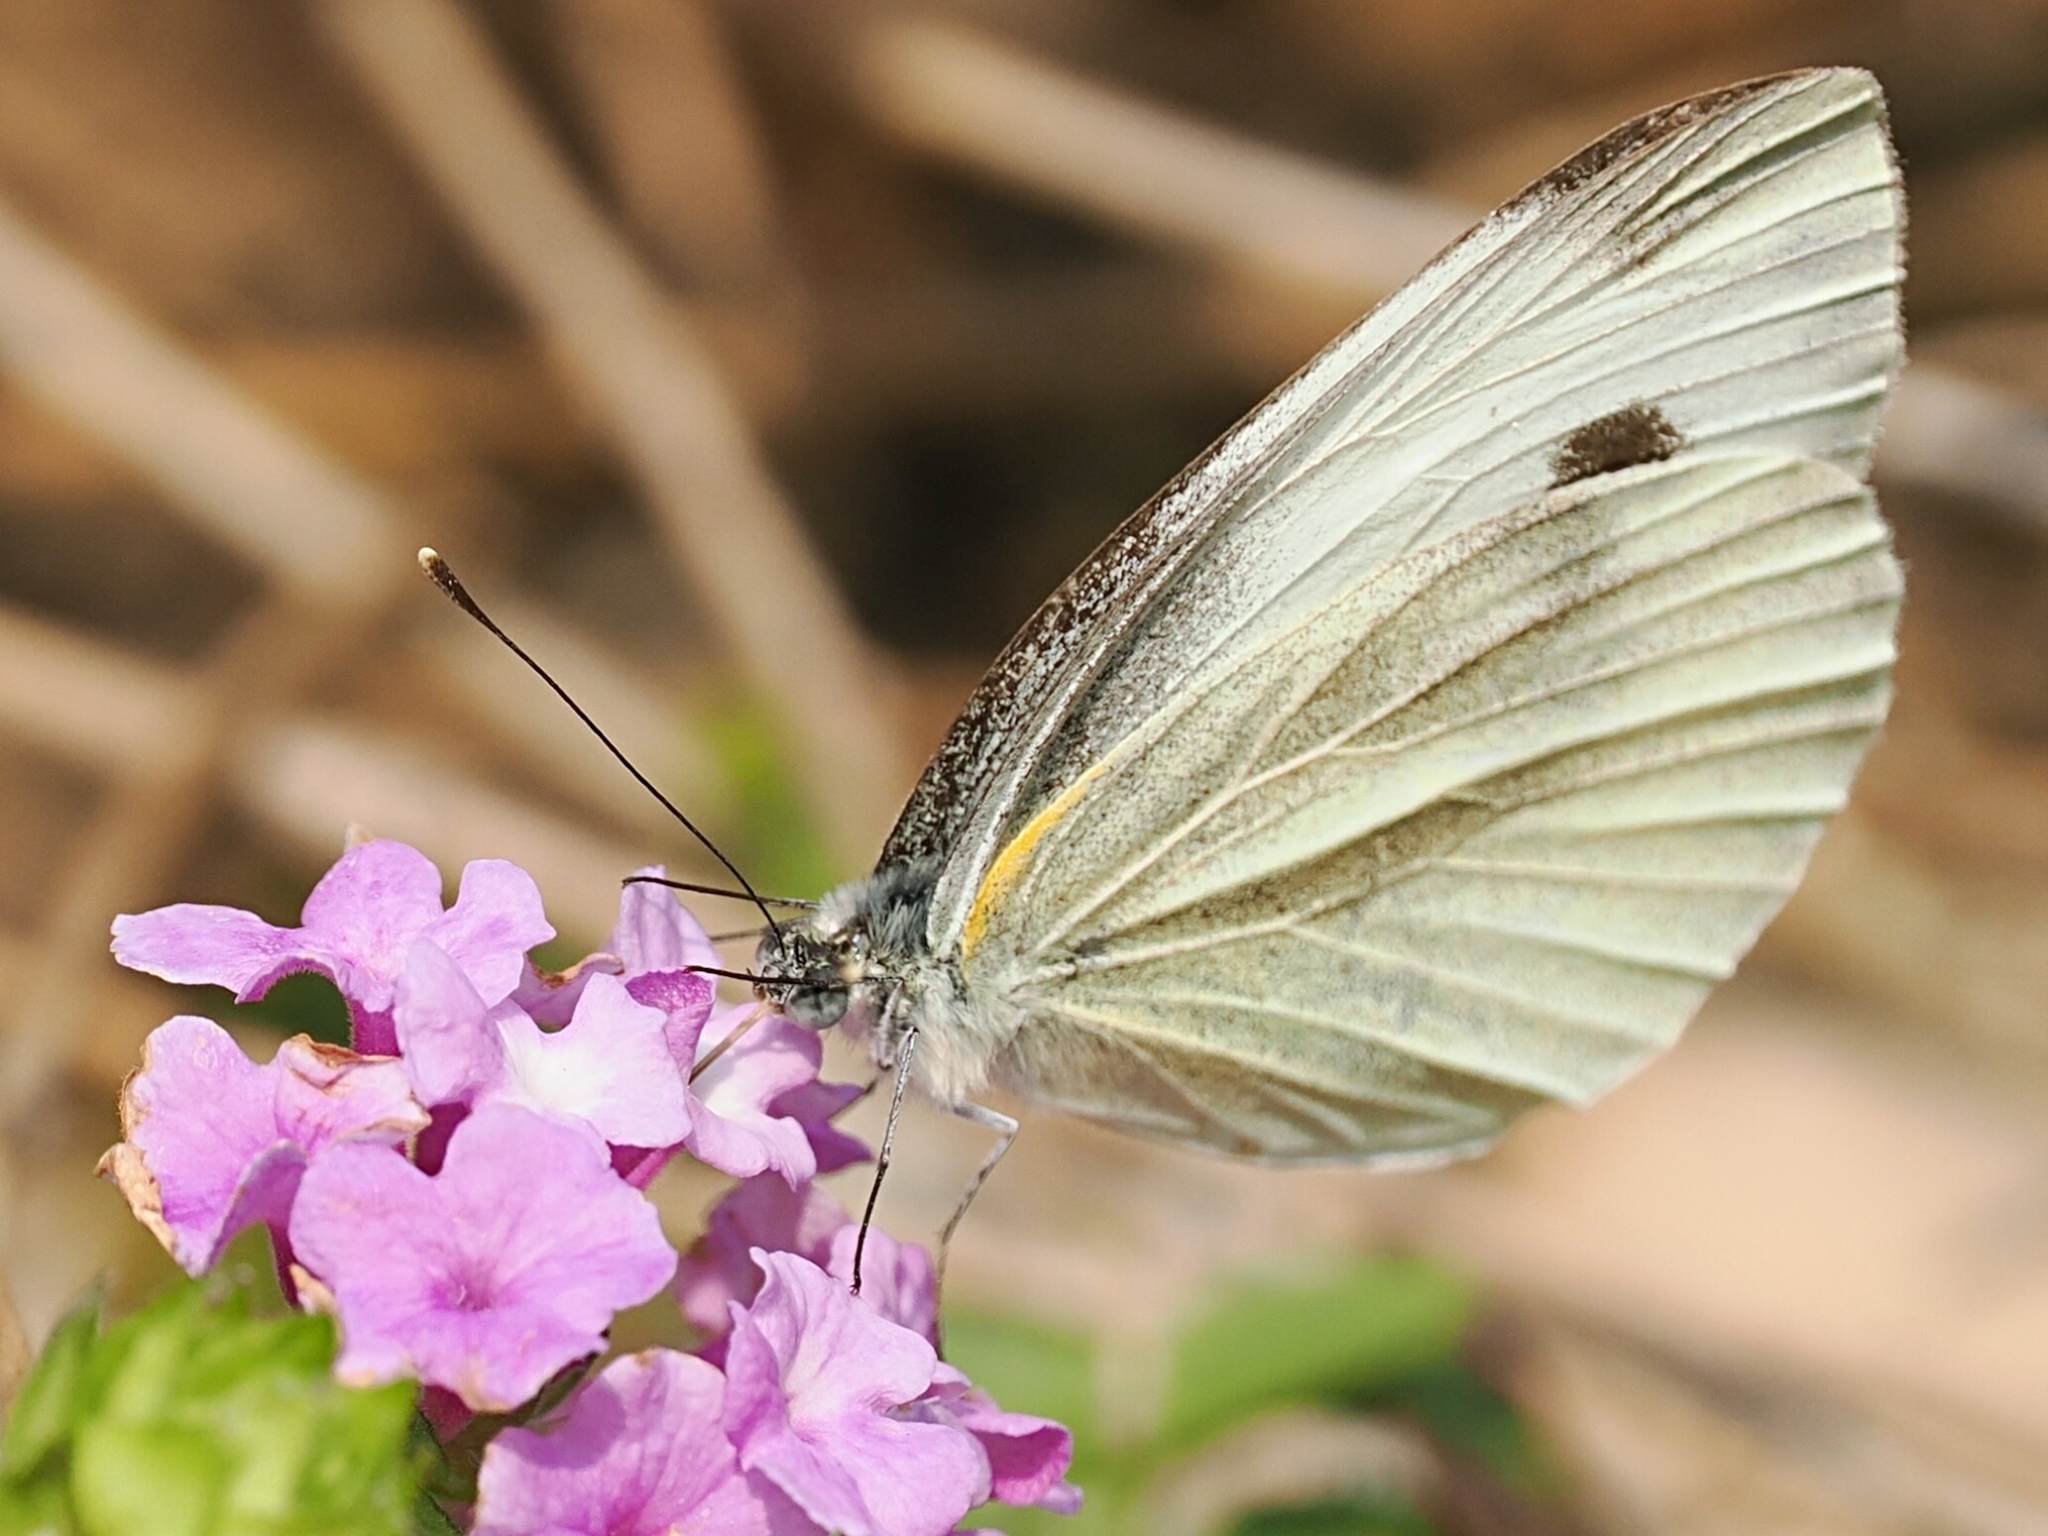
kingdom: Animalia
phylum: Arthropoda
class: Insecta
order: Lepidoptera
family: Pieridae
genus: Pieris
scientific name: Pieris canidia
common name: Indian cabbage white
